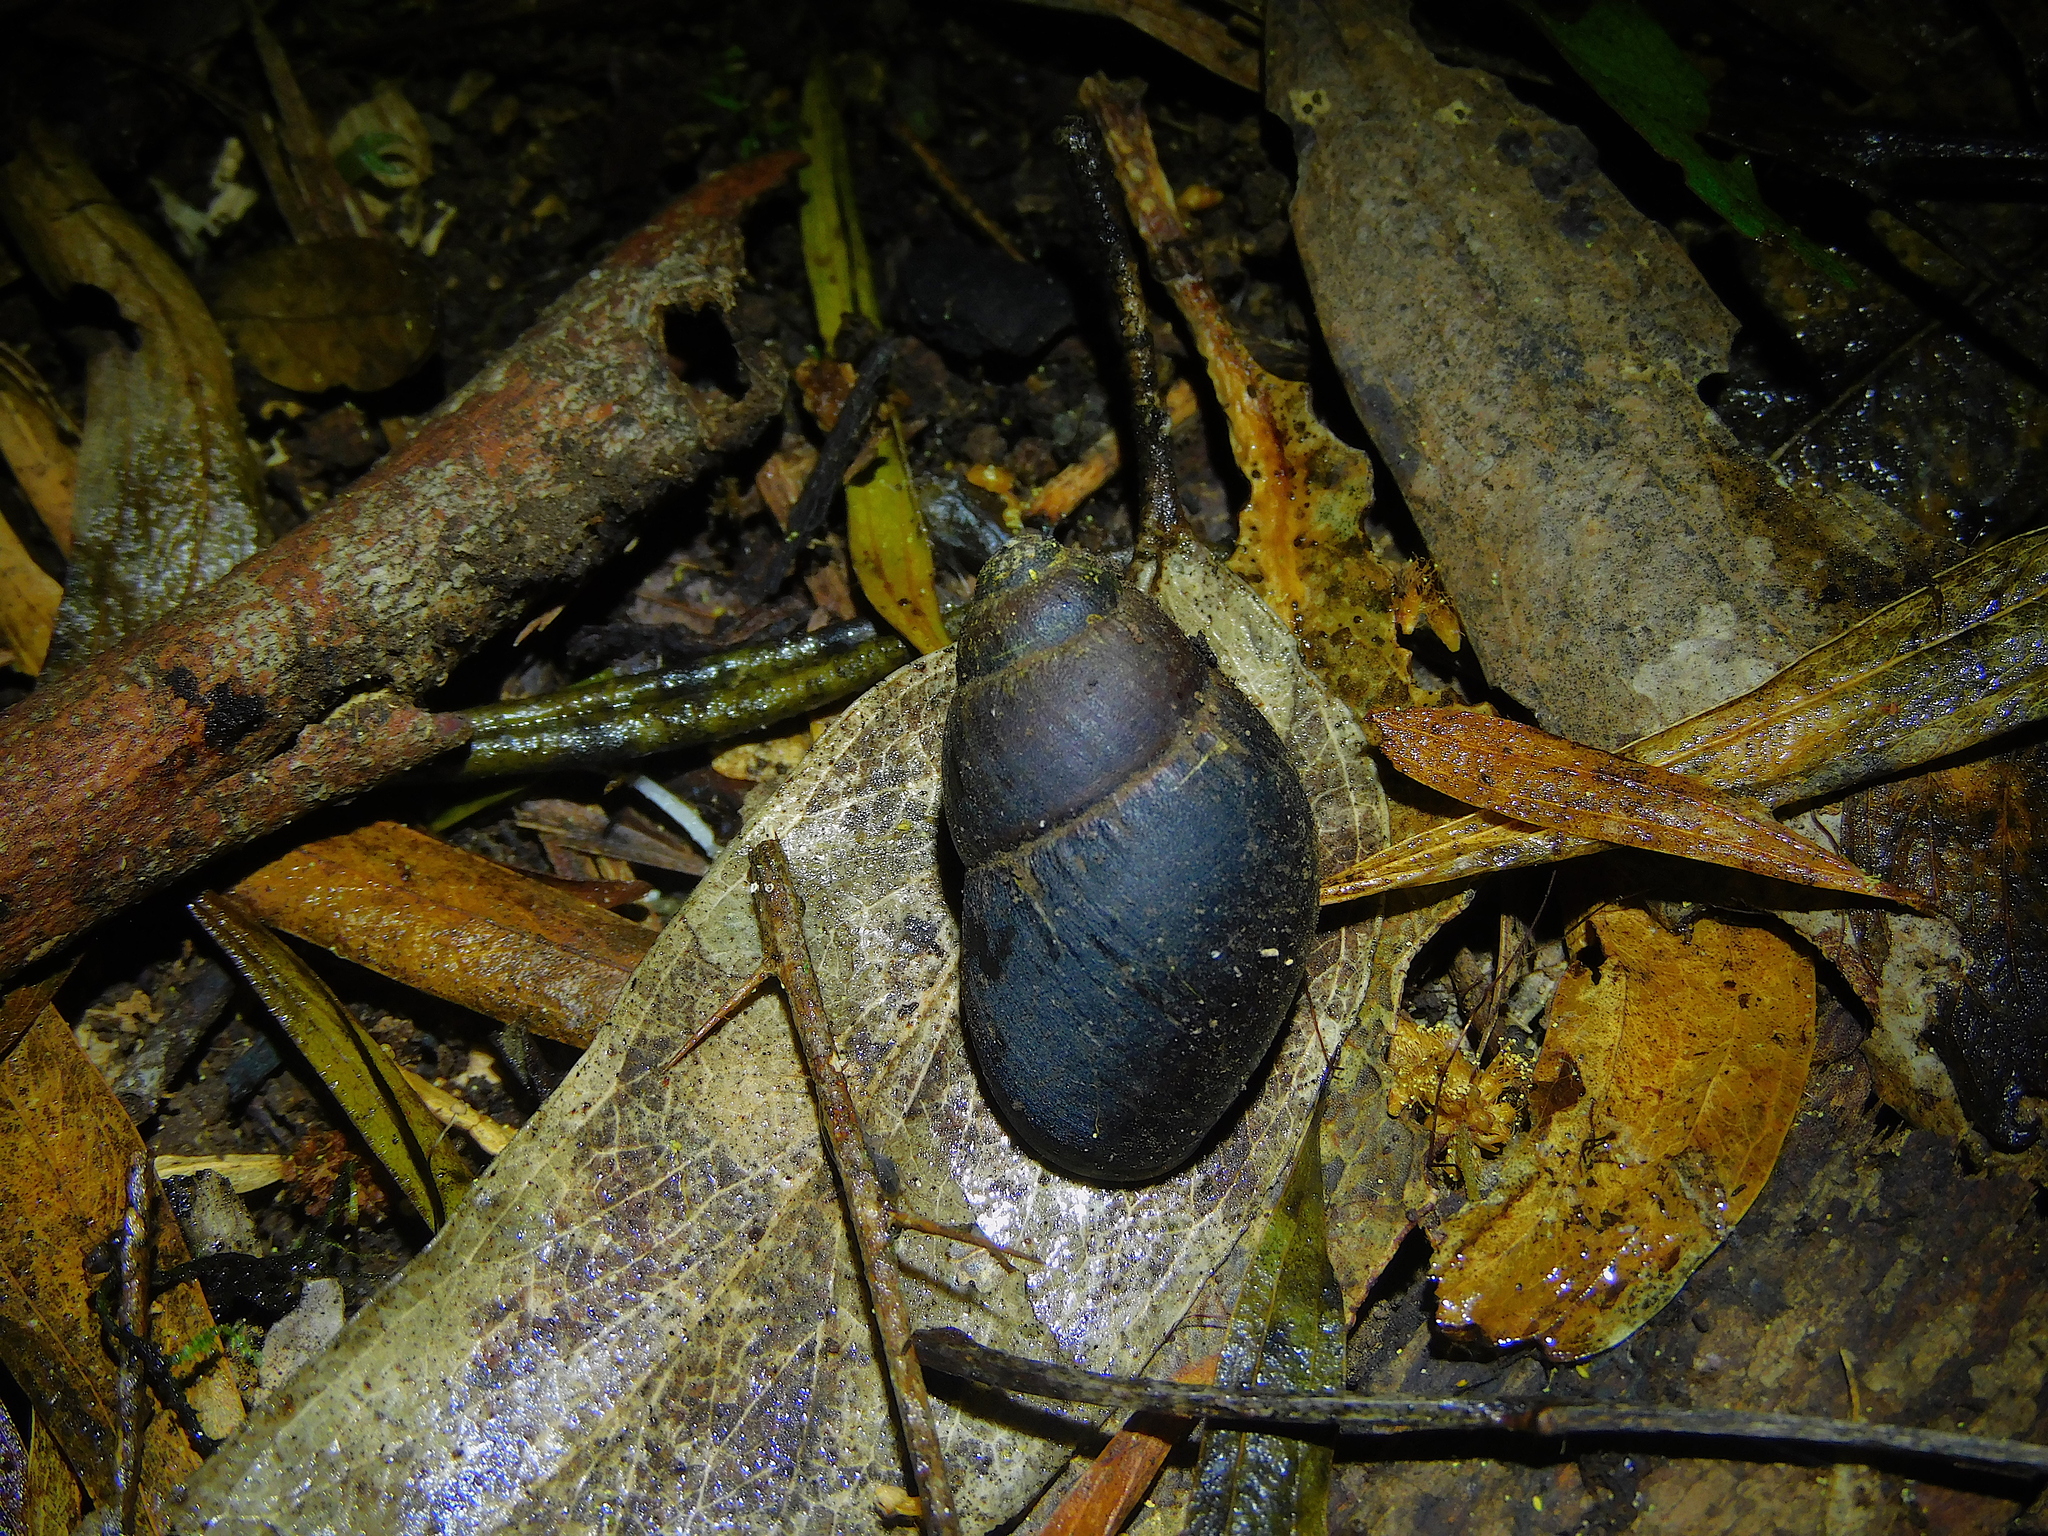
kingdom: Animalia
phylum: Mollusca
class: Gastropoda
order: Stylommatophora
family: Caryodidae
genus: Caryodes
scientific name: Caryodes dufresnii
